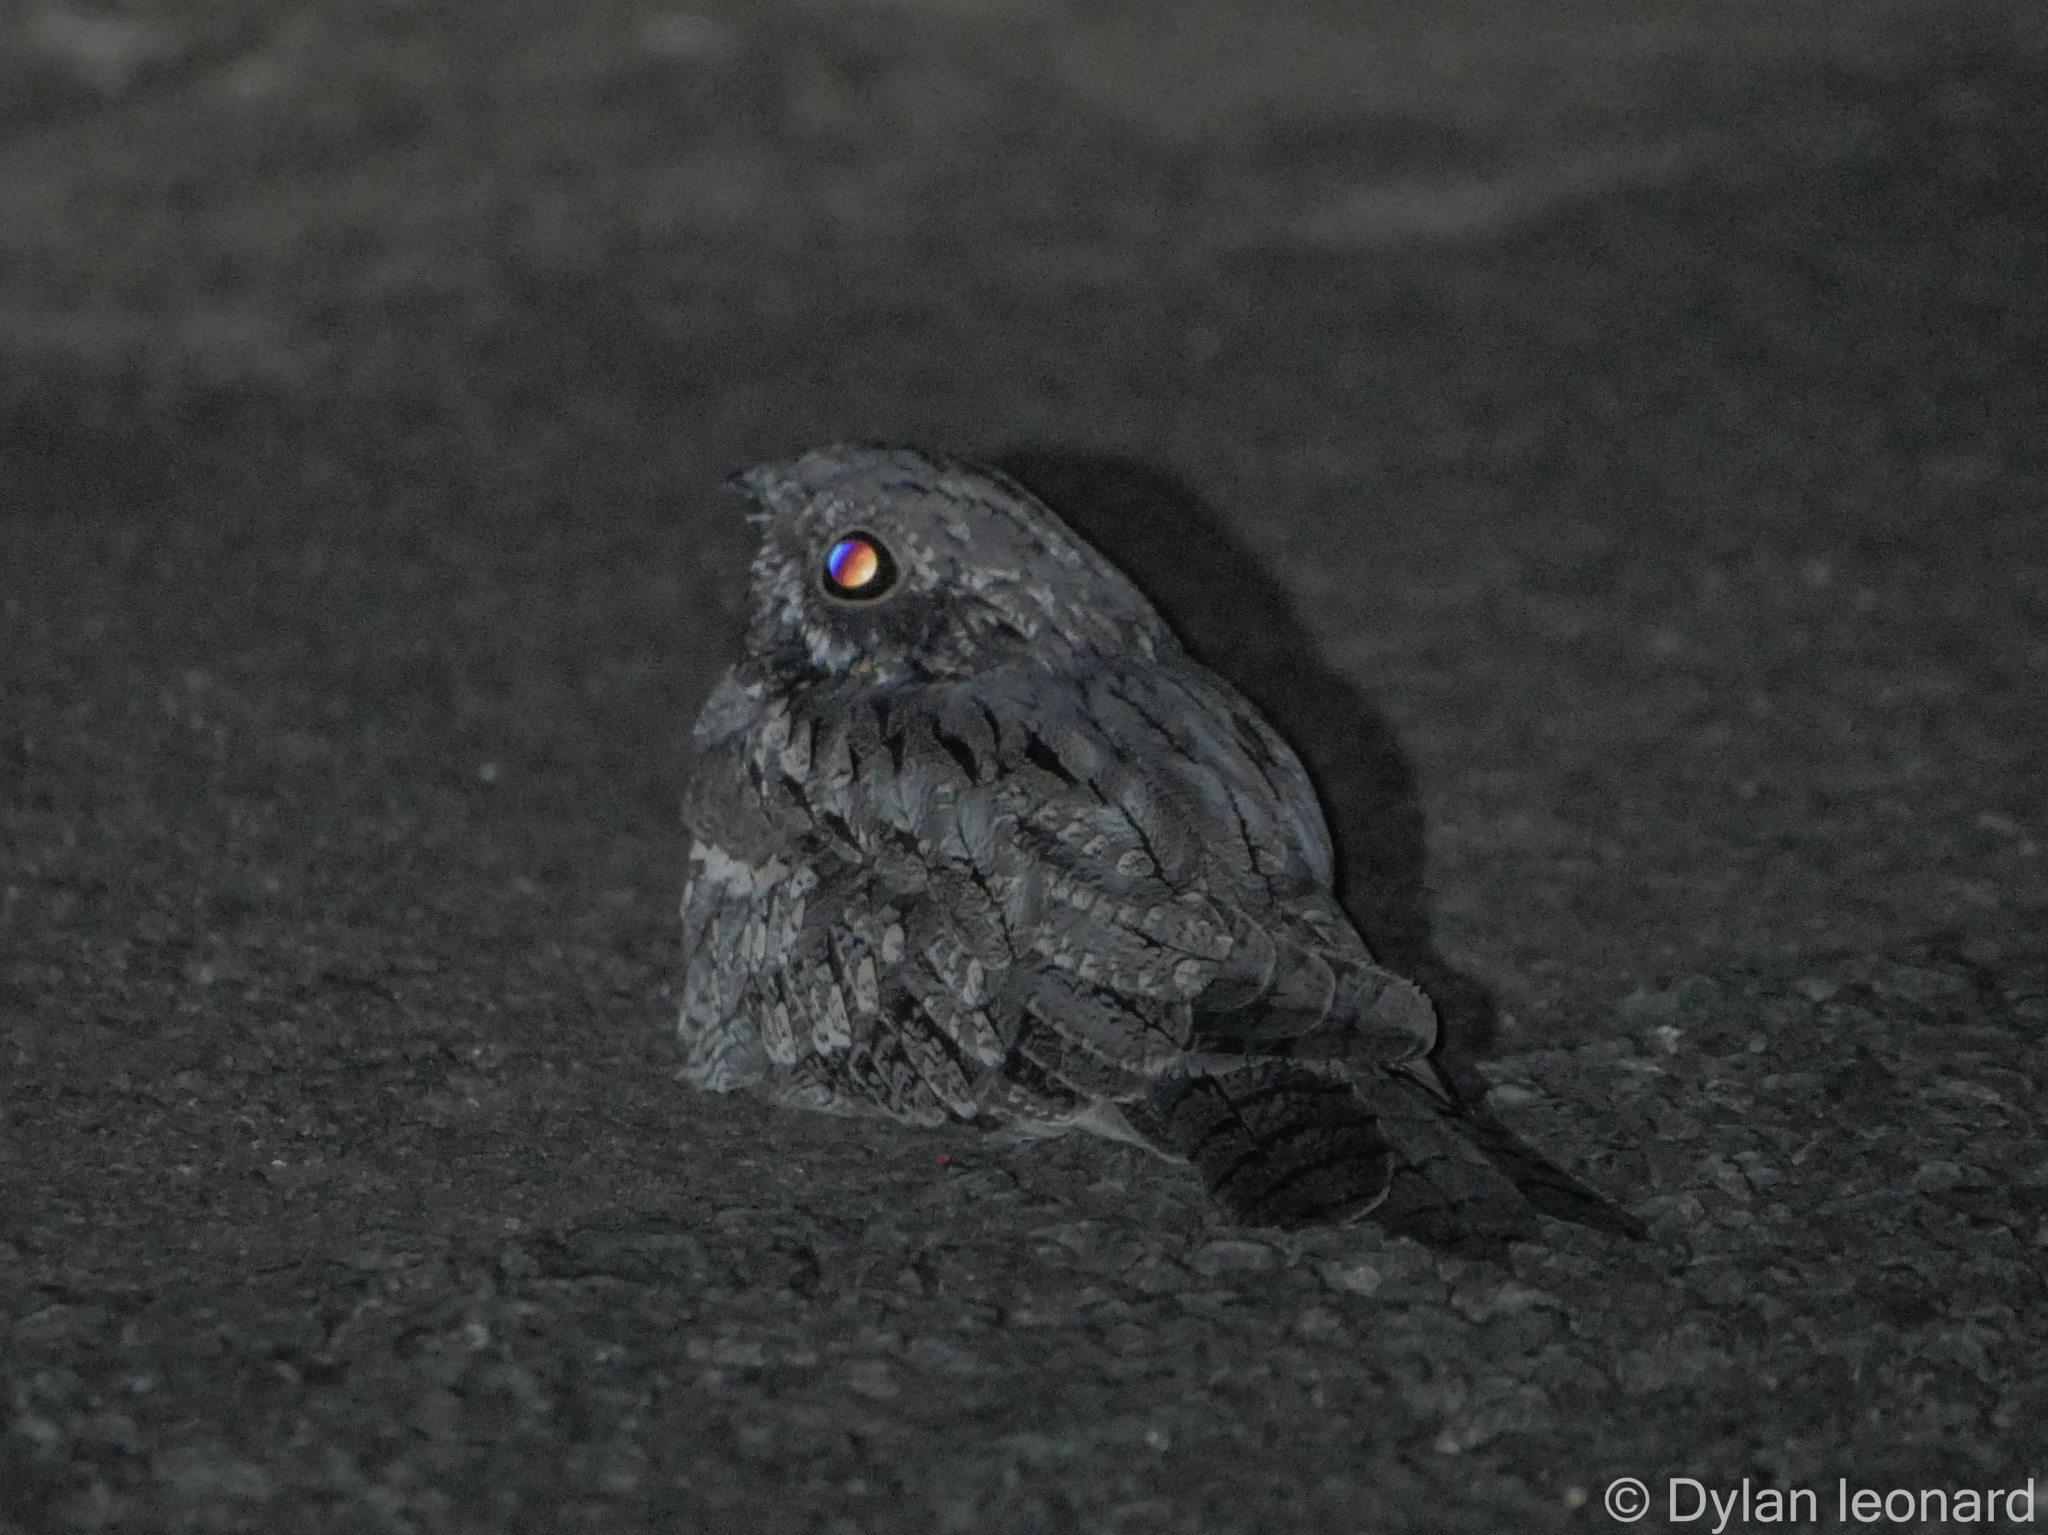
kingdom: Animalia
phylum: Chordata
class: Aves
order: Caprimulgiformes
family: Caprimulgidae
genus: Caprimulgus
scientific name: Caprimulgus europaeus
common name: European nightjar
